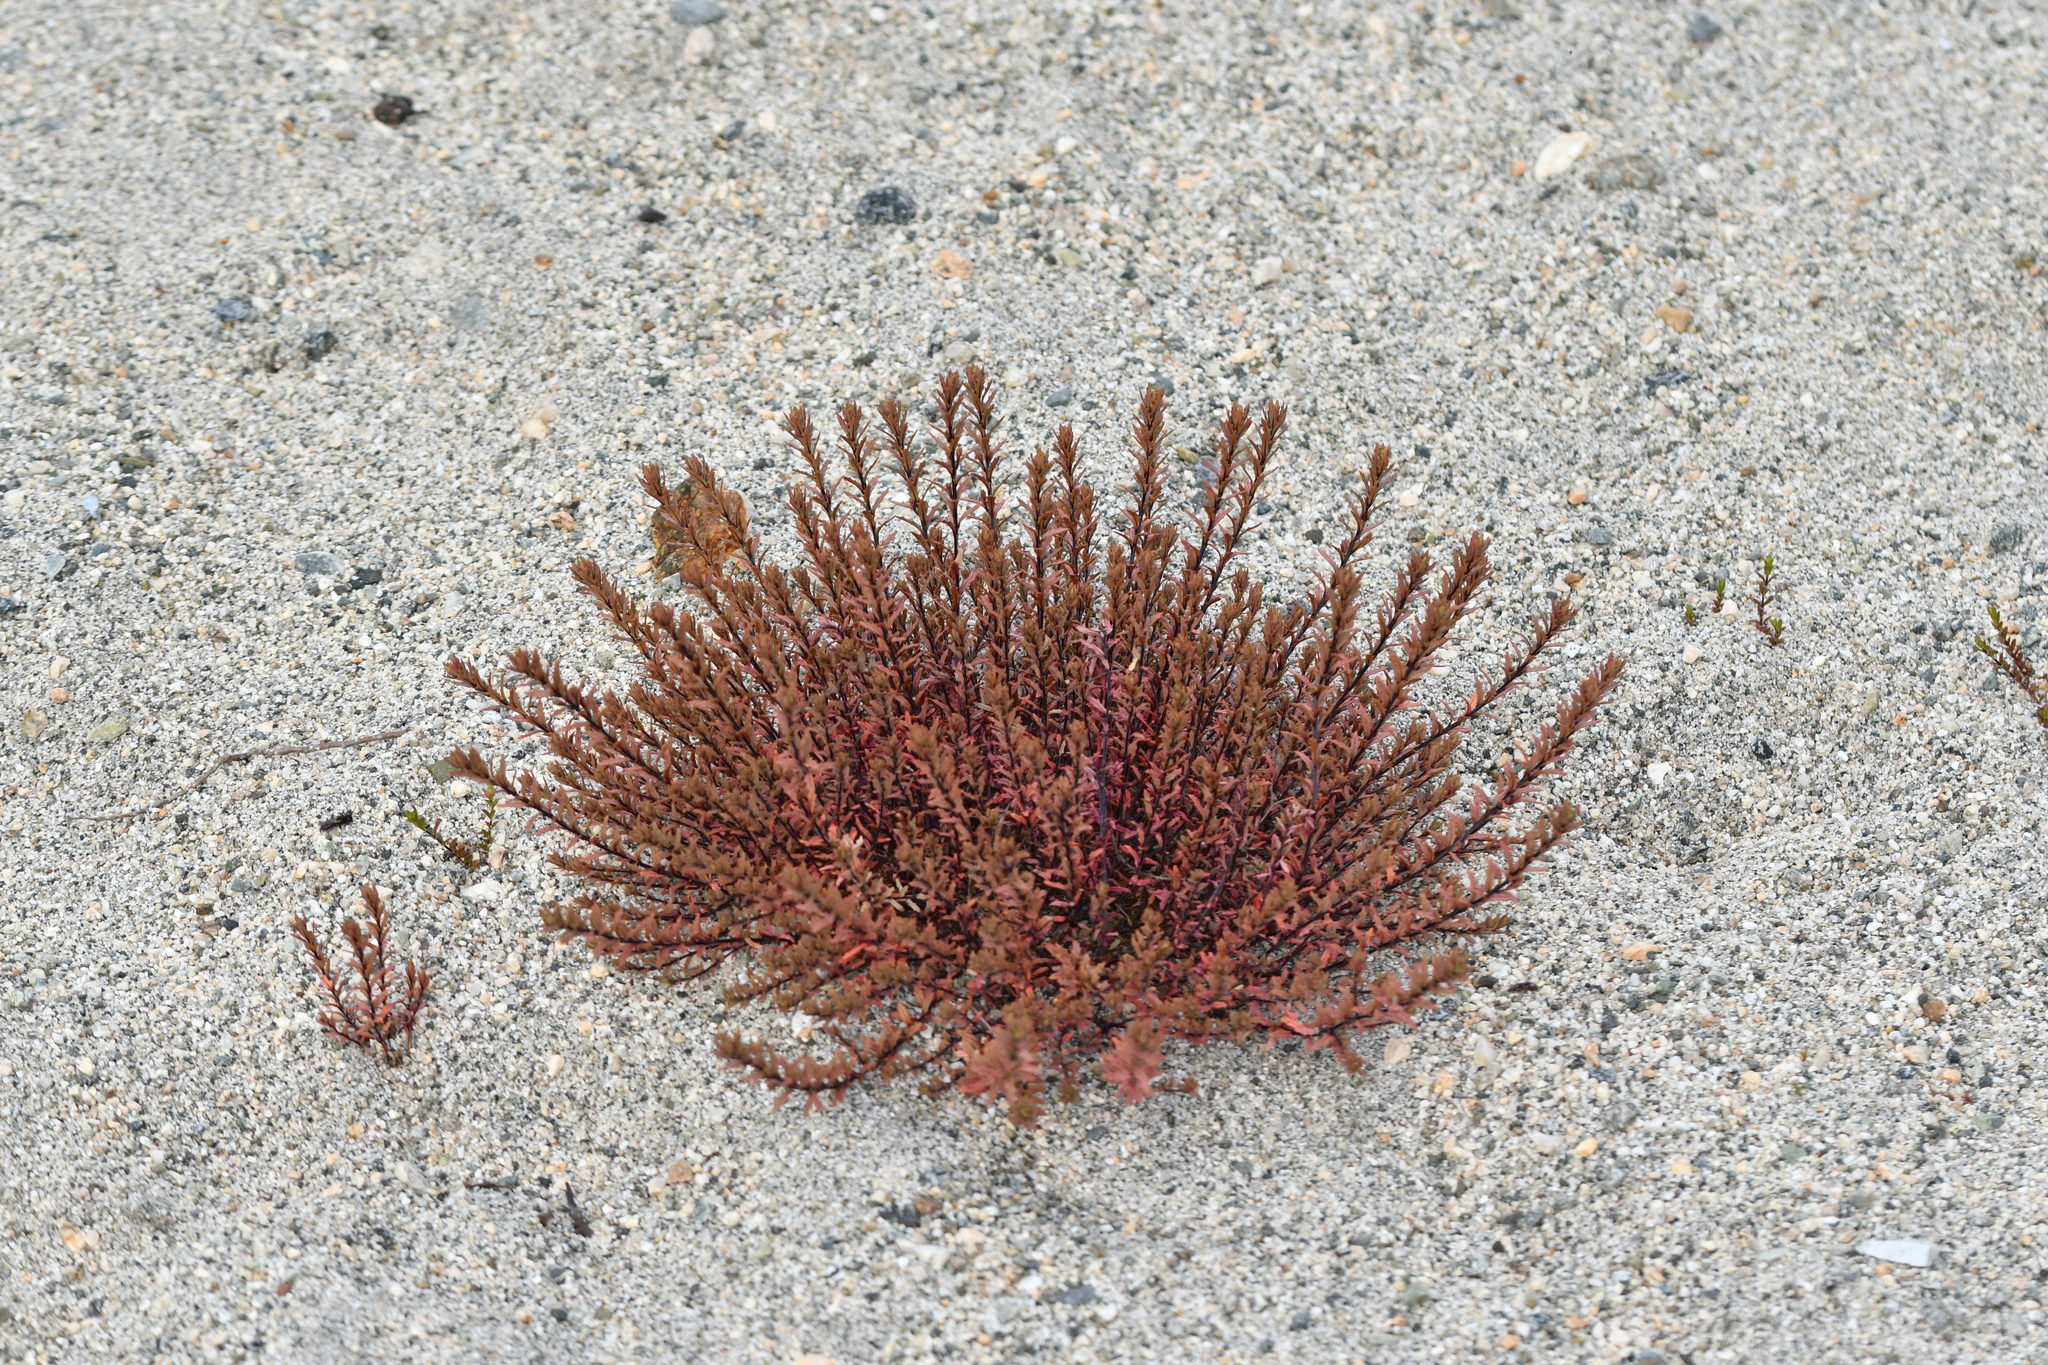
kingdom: Plantae
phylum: Tracheophyta
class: Magnoliopsida
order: Myrtales
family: Onagraceae
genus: Epilobium
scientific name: Epilobium melanocaulon
